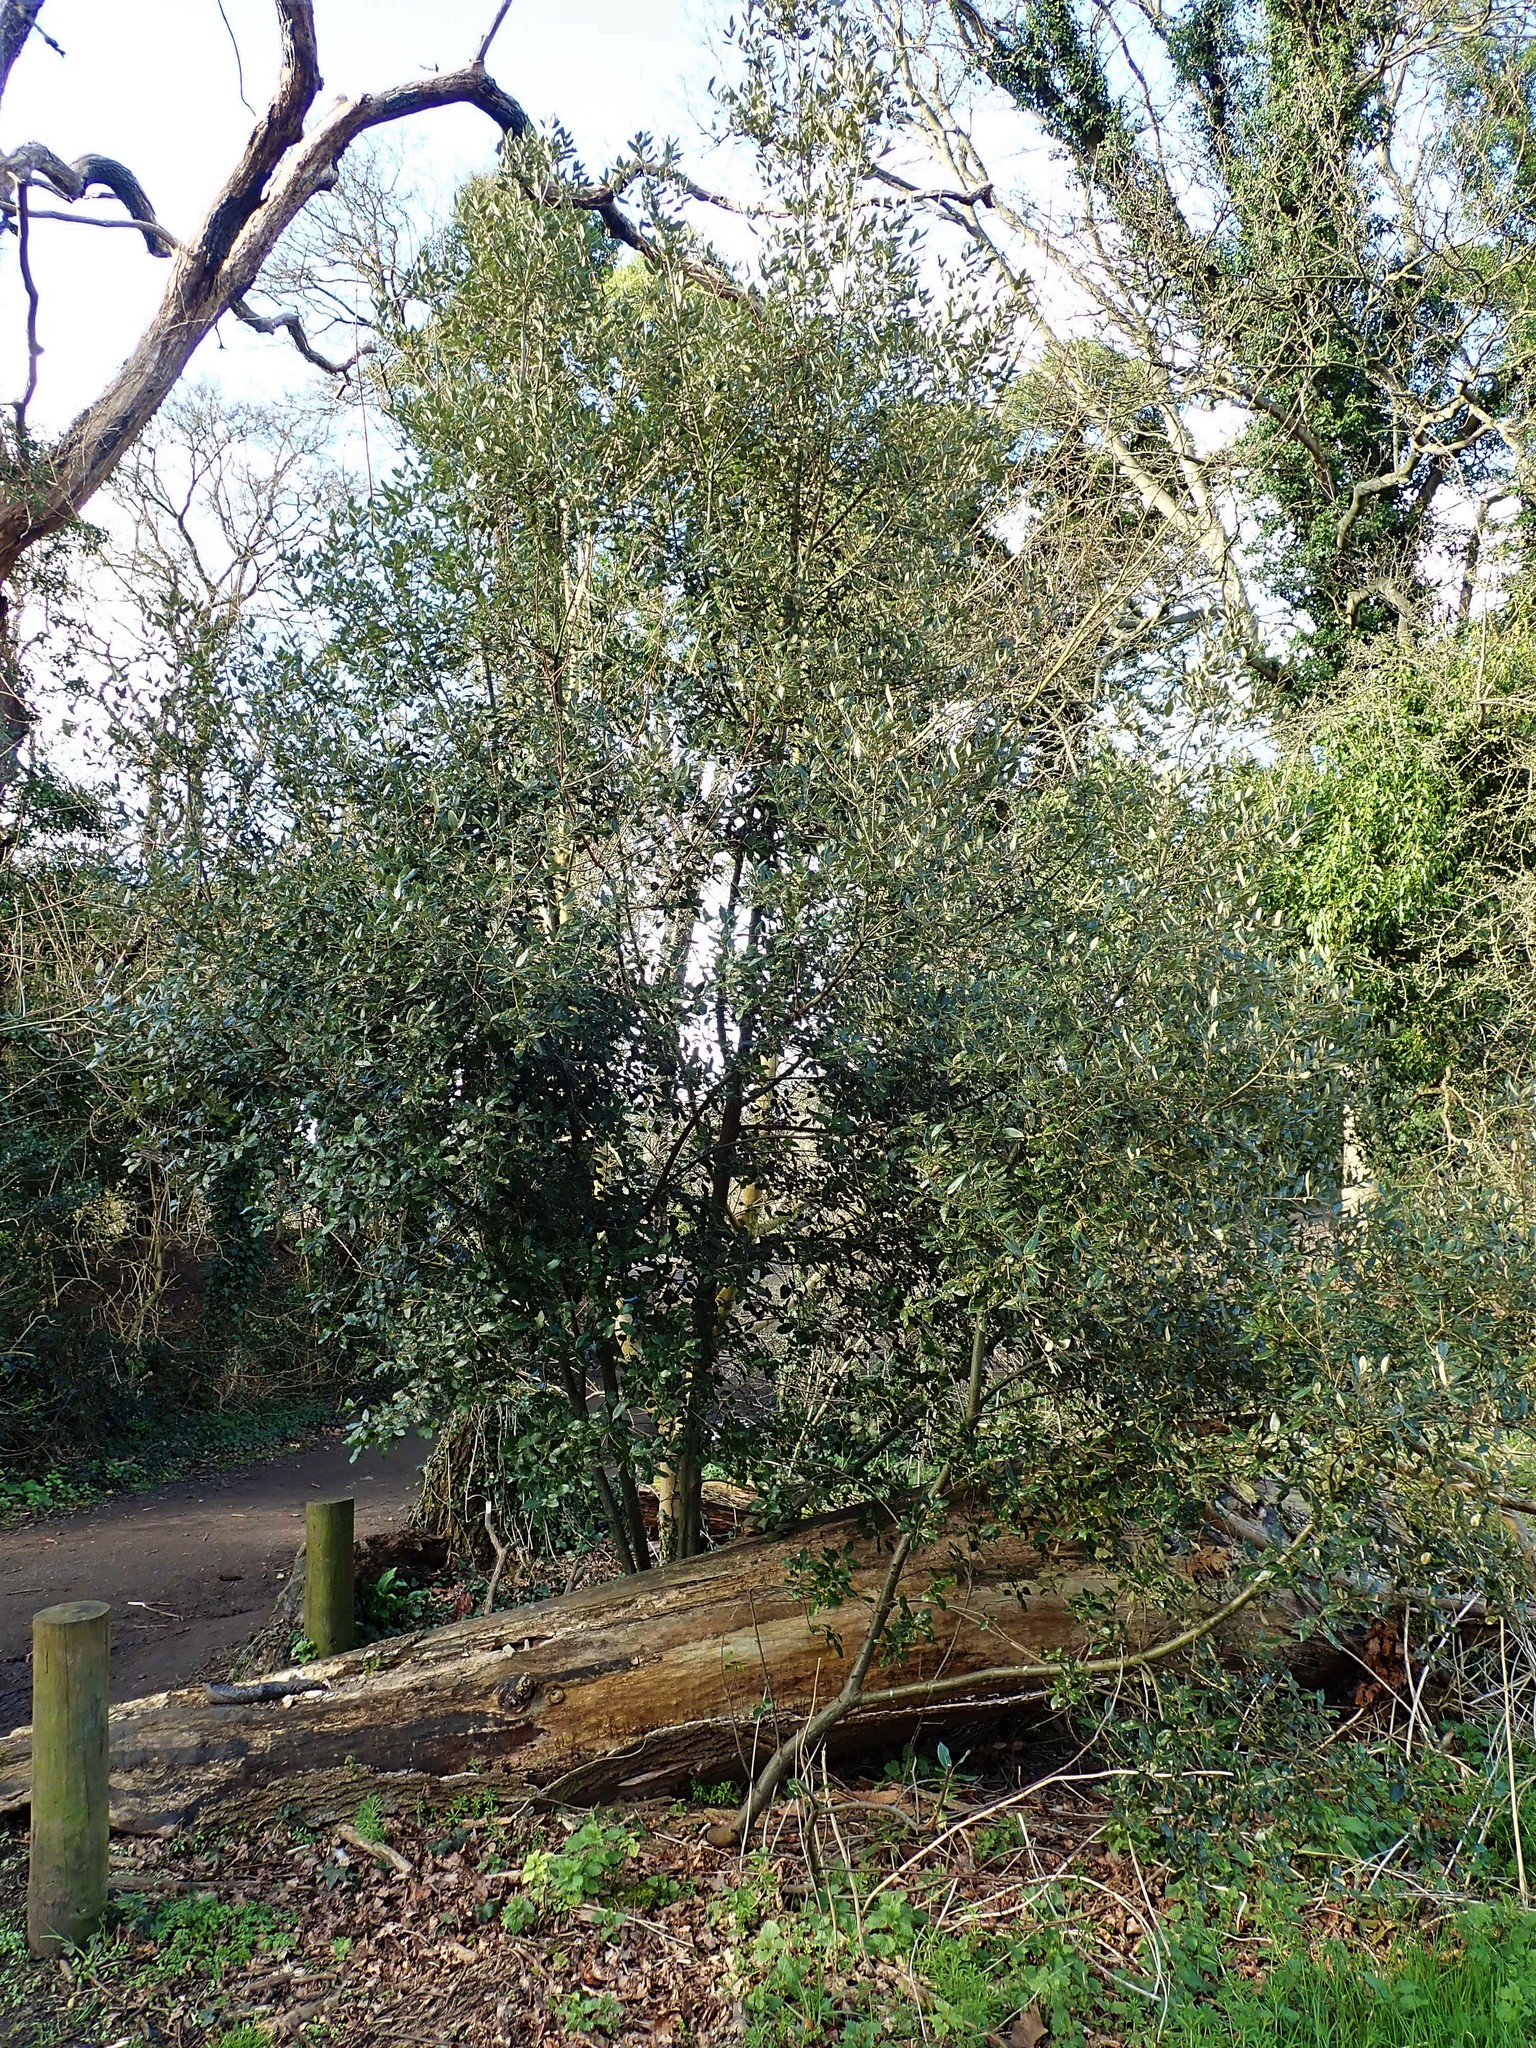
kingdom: Plantae
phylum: Tracheophyta
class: Magnoliopsida
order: Fagales
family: Fagaceae
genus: Quercus
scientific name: Quercus ilex
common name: Evergreen oak
